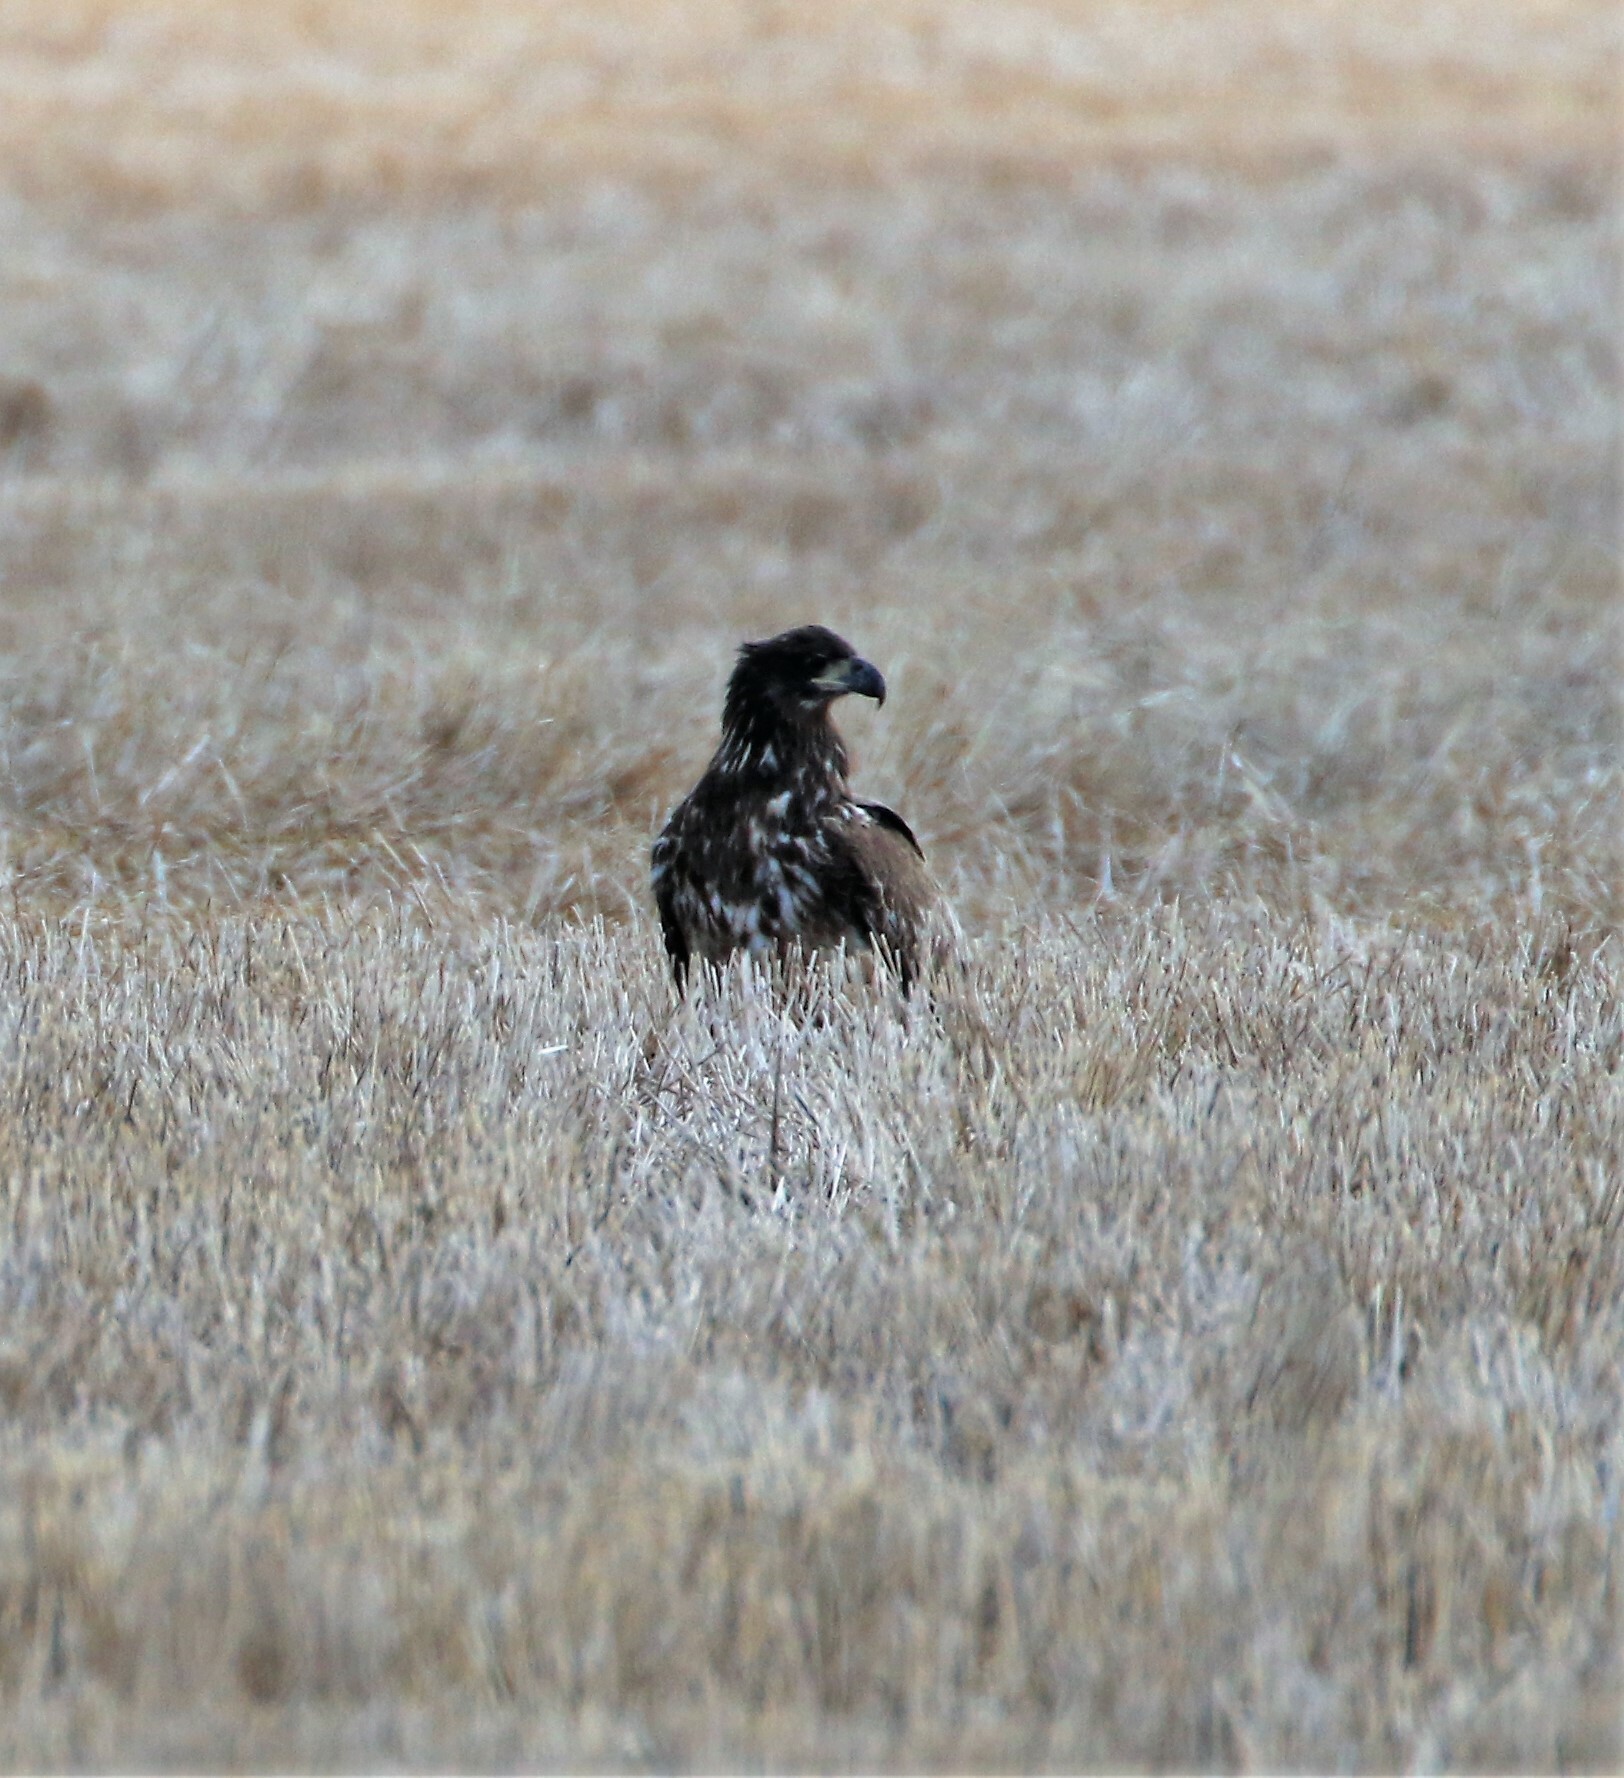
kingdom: Animalia
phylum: Chordata
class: Aves
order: Accipitriformes
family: Accipitridae
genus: Haliaeetus
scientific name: Haliaeetus leucocephalus
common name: Bald eagle
